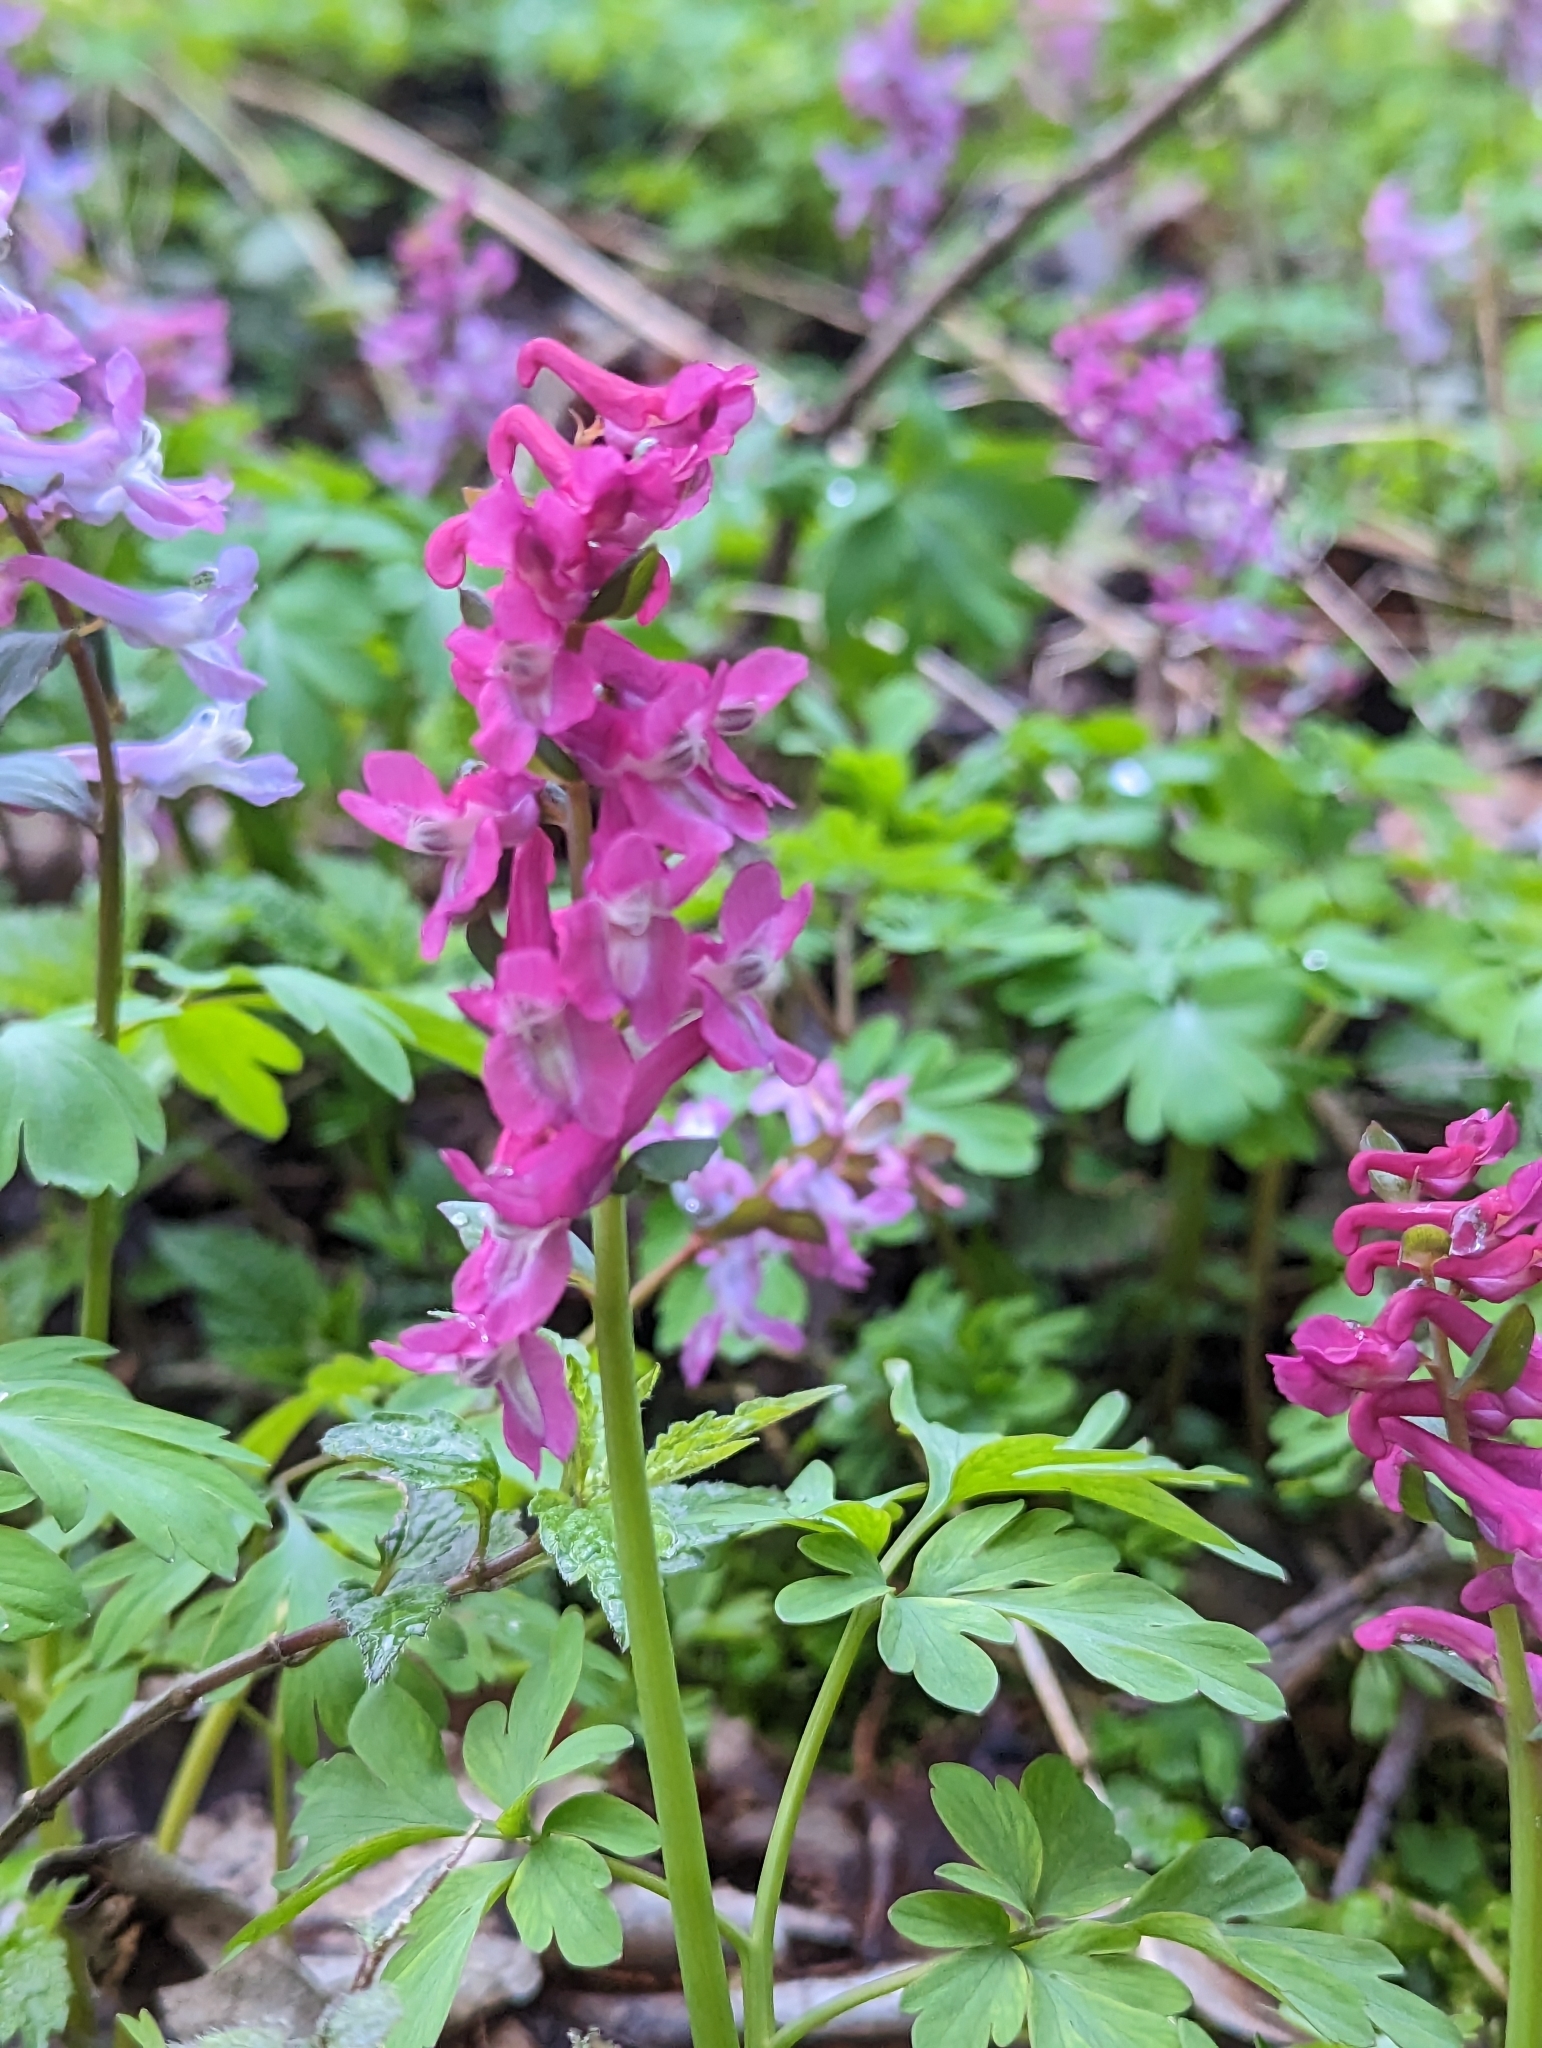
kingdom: Plantae
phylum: Tracheophyta
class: Magnoliopsida
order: Ranunculales
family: Papaveraceae
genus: Corydalis
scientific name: Corydalis cava
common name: Hollowroot
